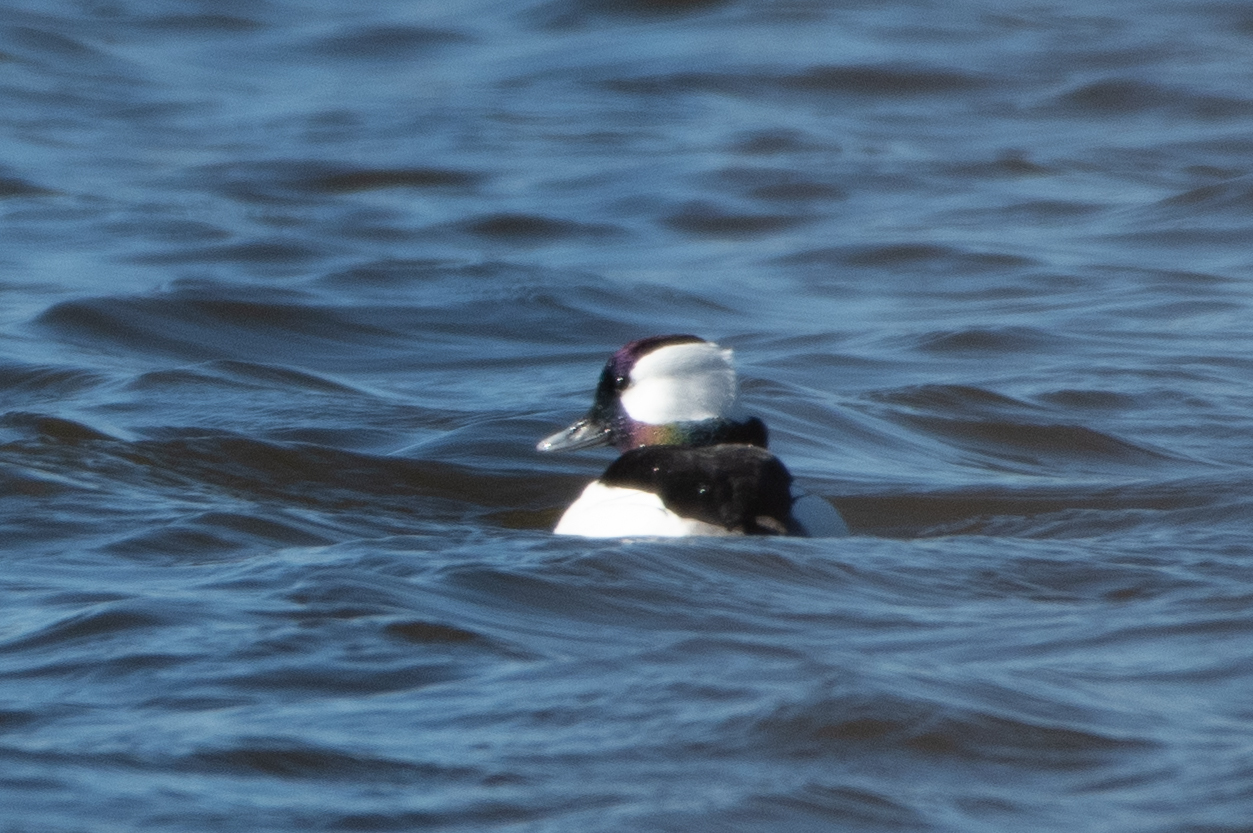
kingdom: Animalia
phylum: Chordata
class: Aves
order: Anseriformes
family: Anatidae
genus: Bucephala
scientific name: Bucephala albeola
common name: Bufflehead
